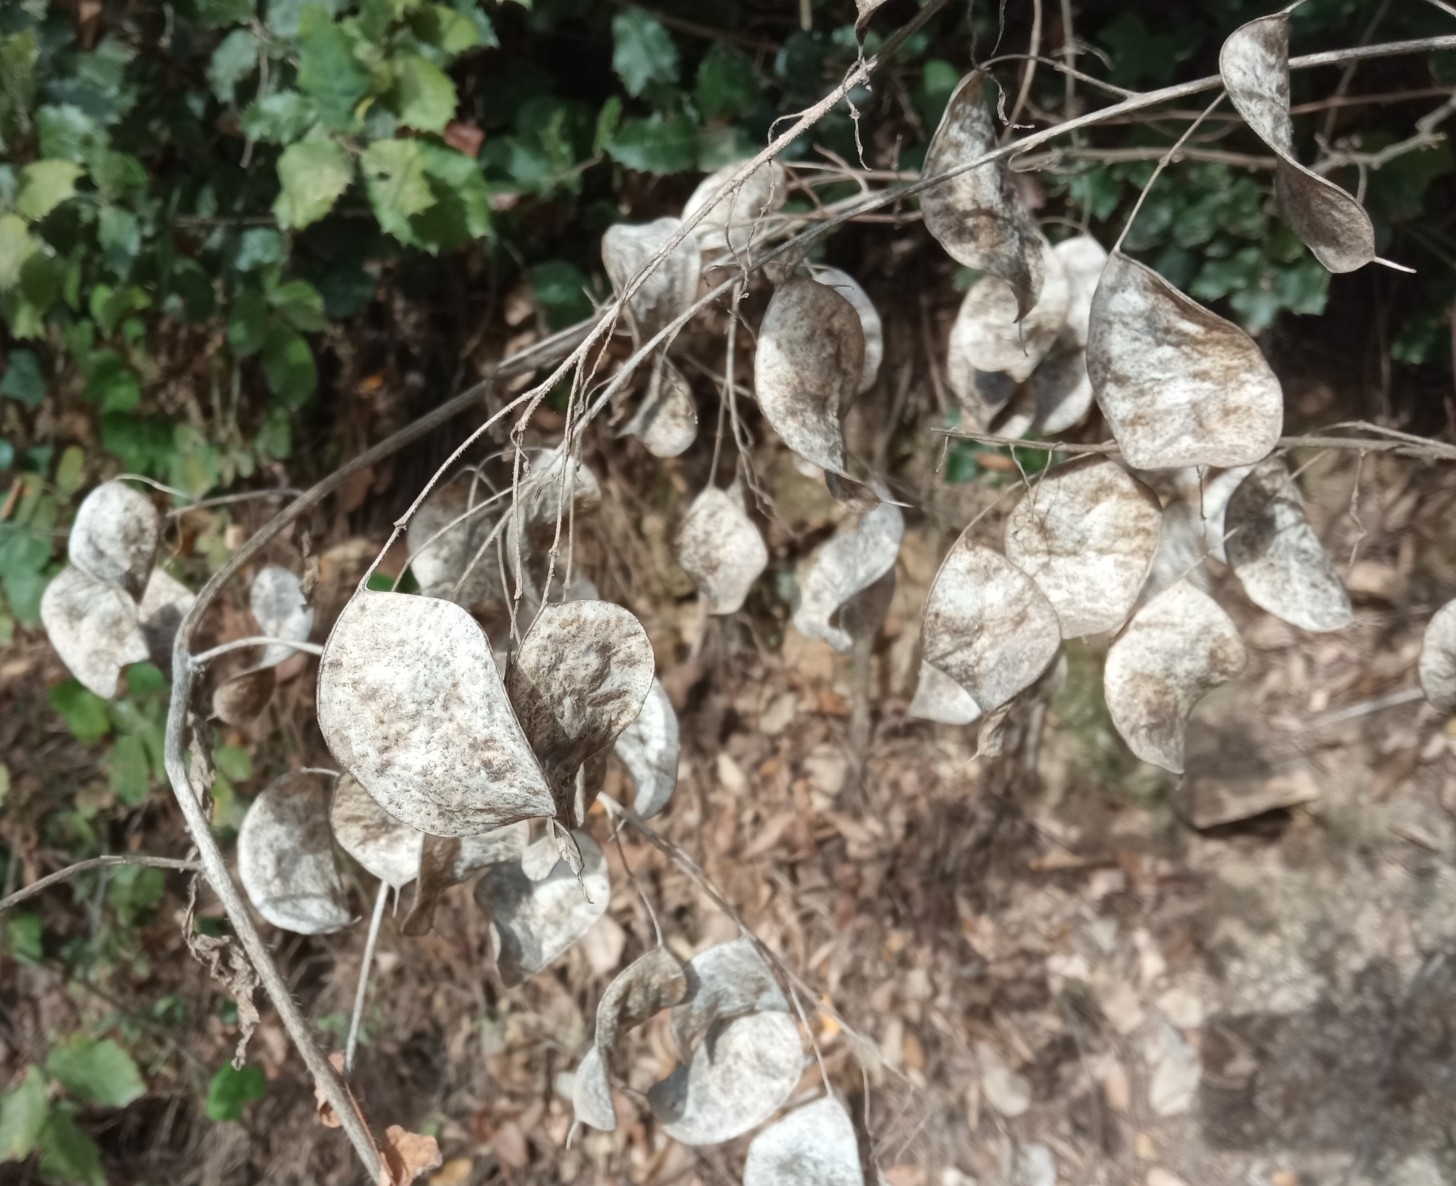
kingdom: Plantae
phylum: Tracheophyta
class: Magnoliopsida
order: Brassicales
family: Brassicaceae
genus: Lunaria
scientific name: Lunaria annua
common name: Honesty
